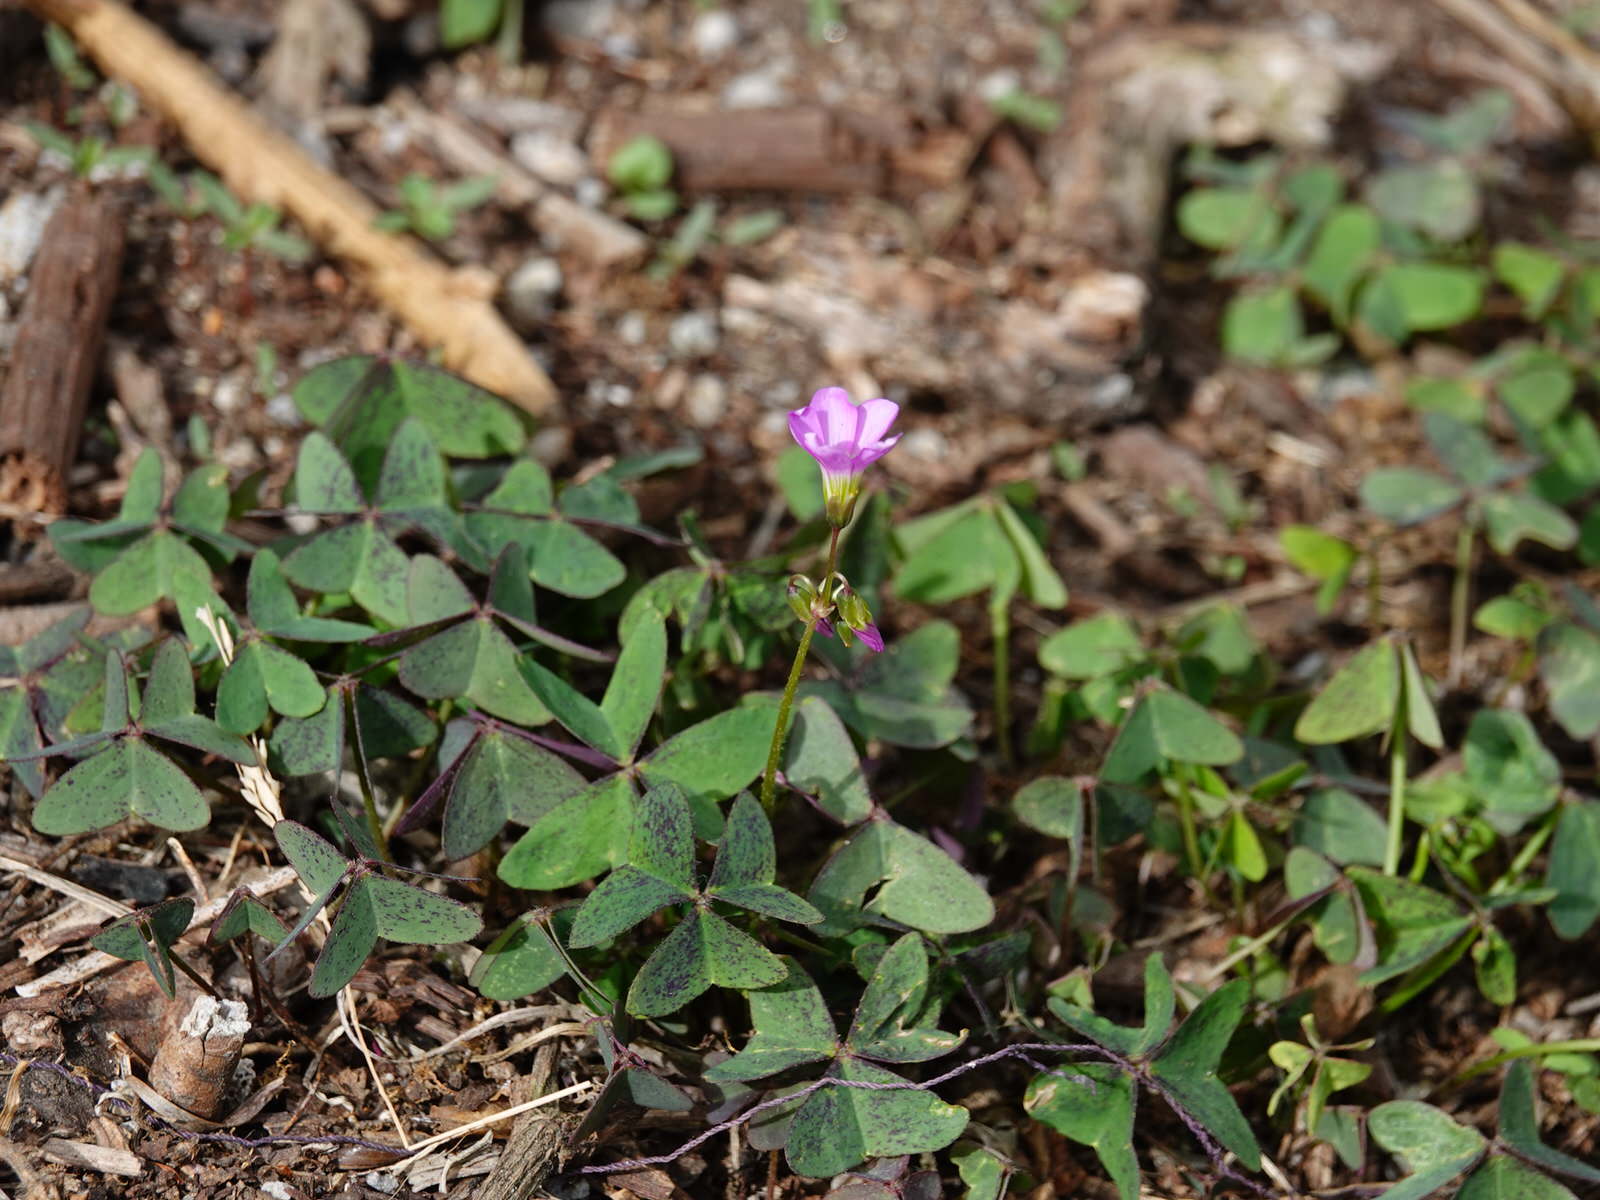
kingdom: Plantae
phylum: Tracheophyta
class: Magnoliopsida
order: Oxalidales
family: Oxalidaceae
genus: Oxalis
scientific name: Oxalis latifolia
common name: Garden pink-sorrel
